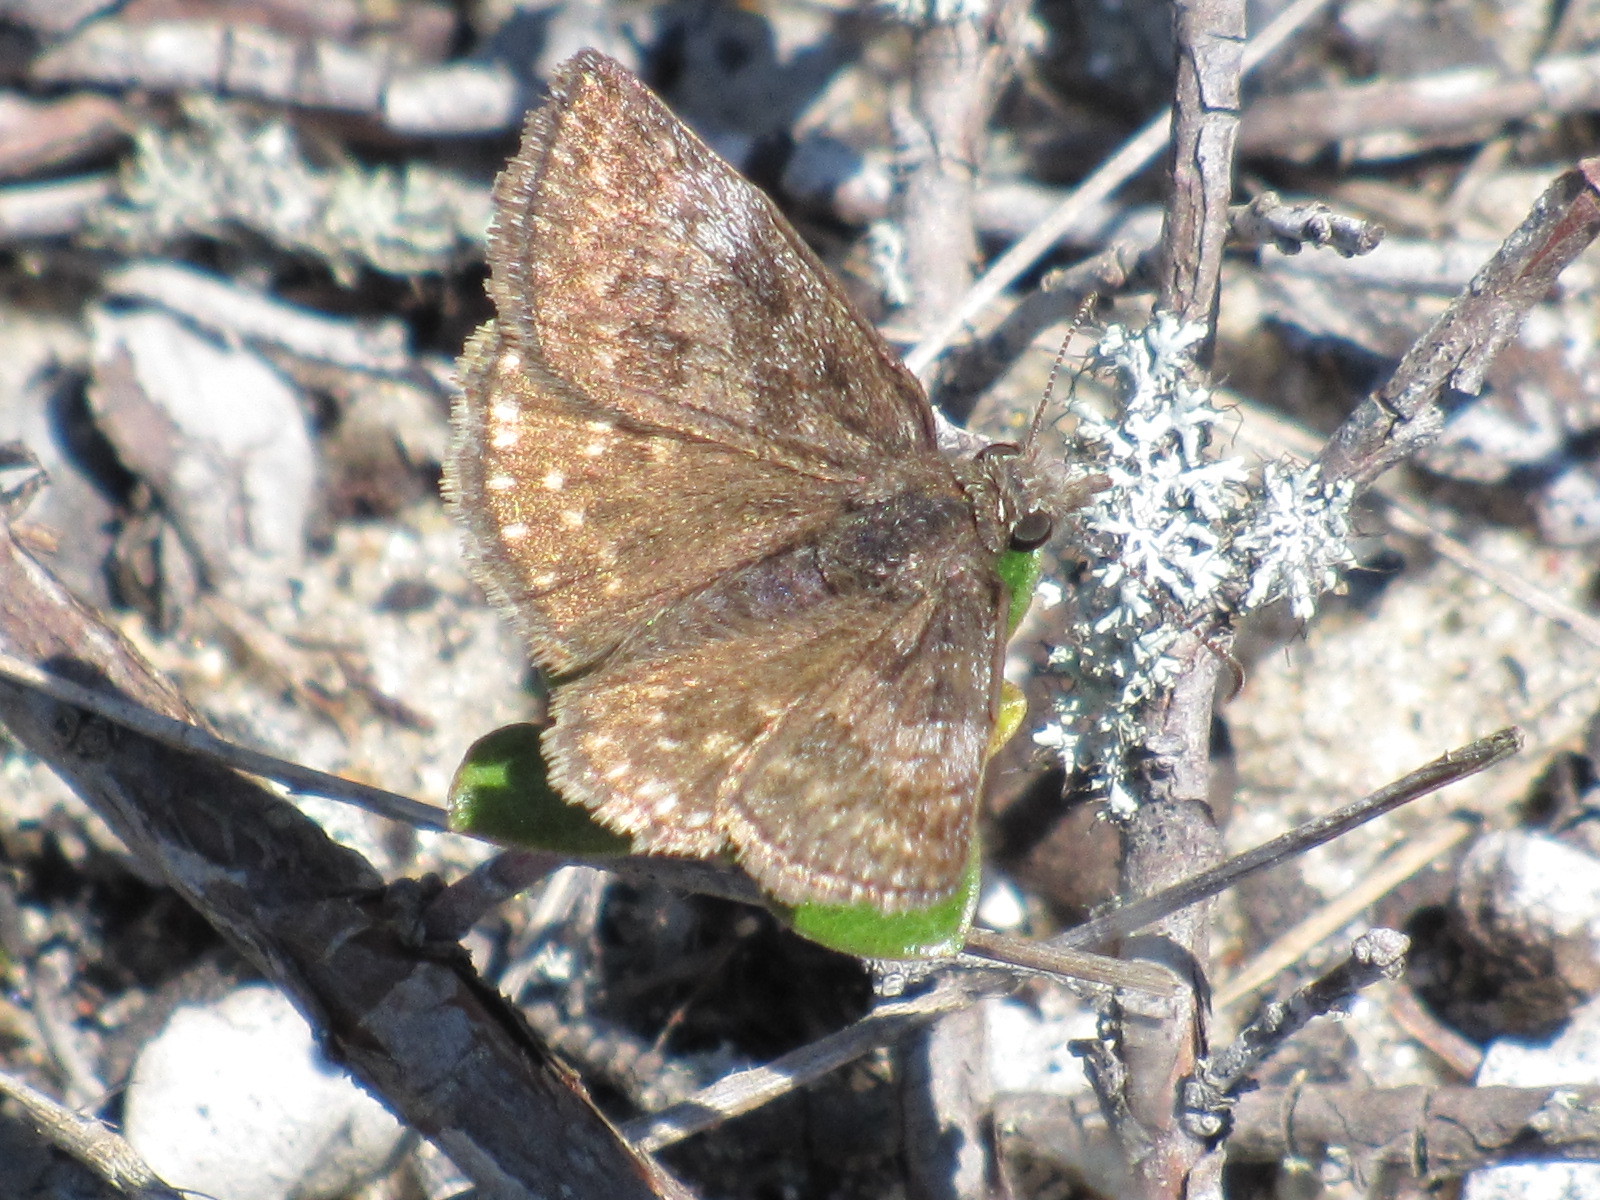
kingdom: Animalia
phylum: Arthropoda
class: Insecta
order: Lepidoptera
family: Hesperiidae
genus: Erynnis
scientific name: Erynnis icelus
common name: Dreamy duskywing
